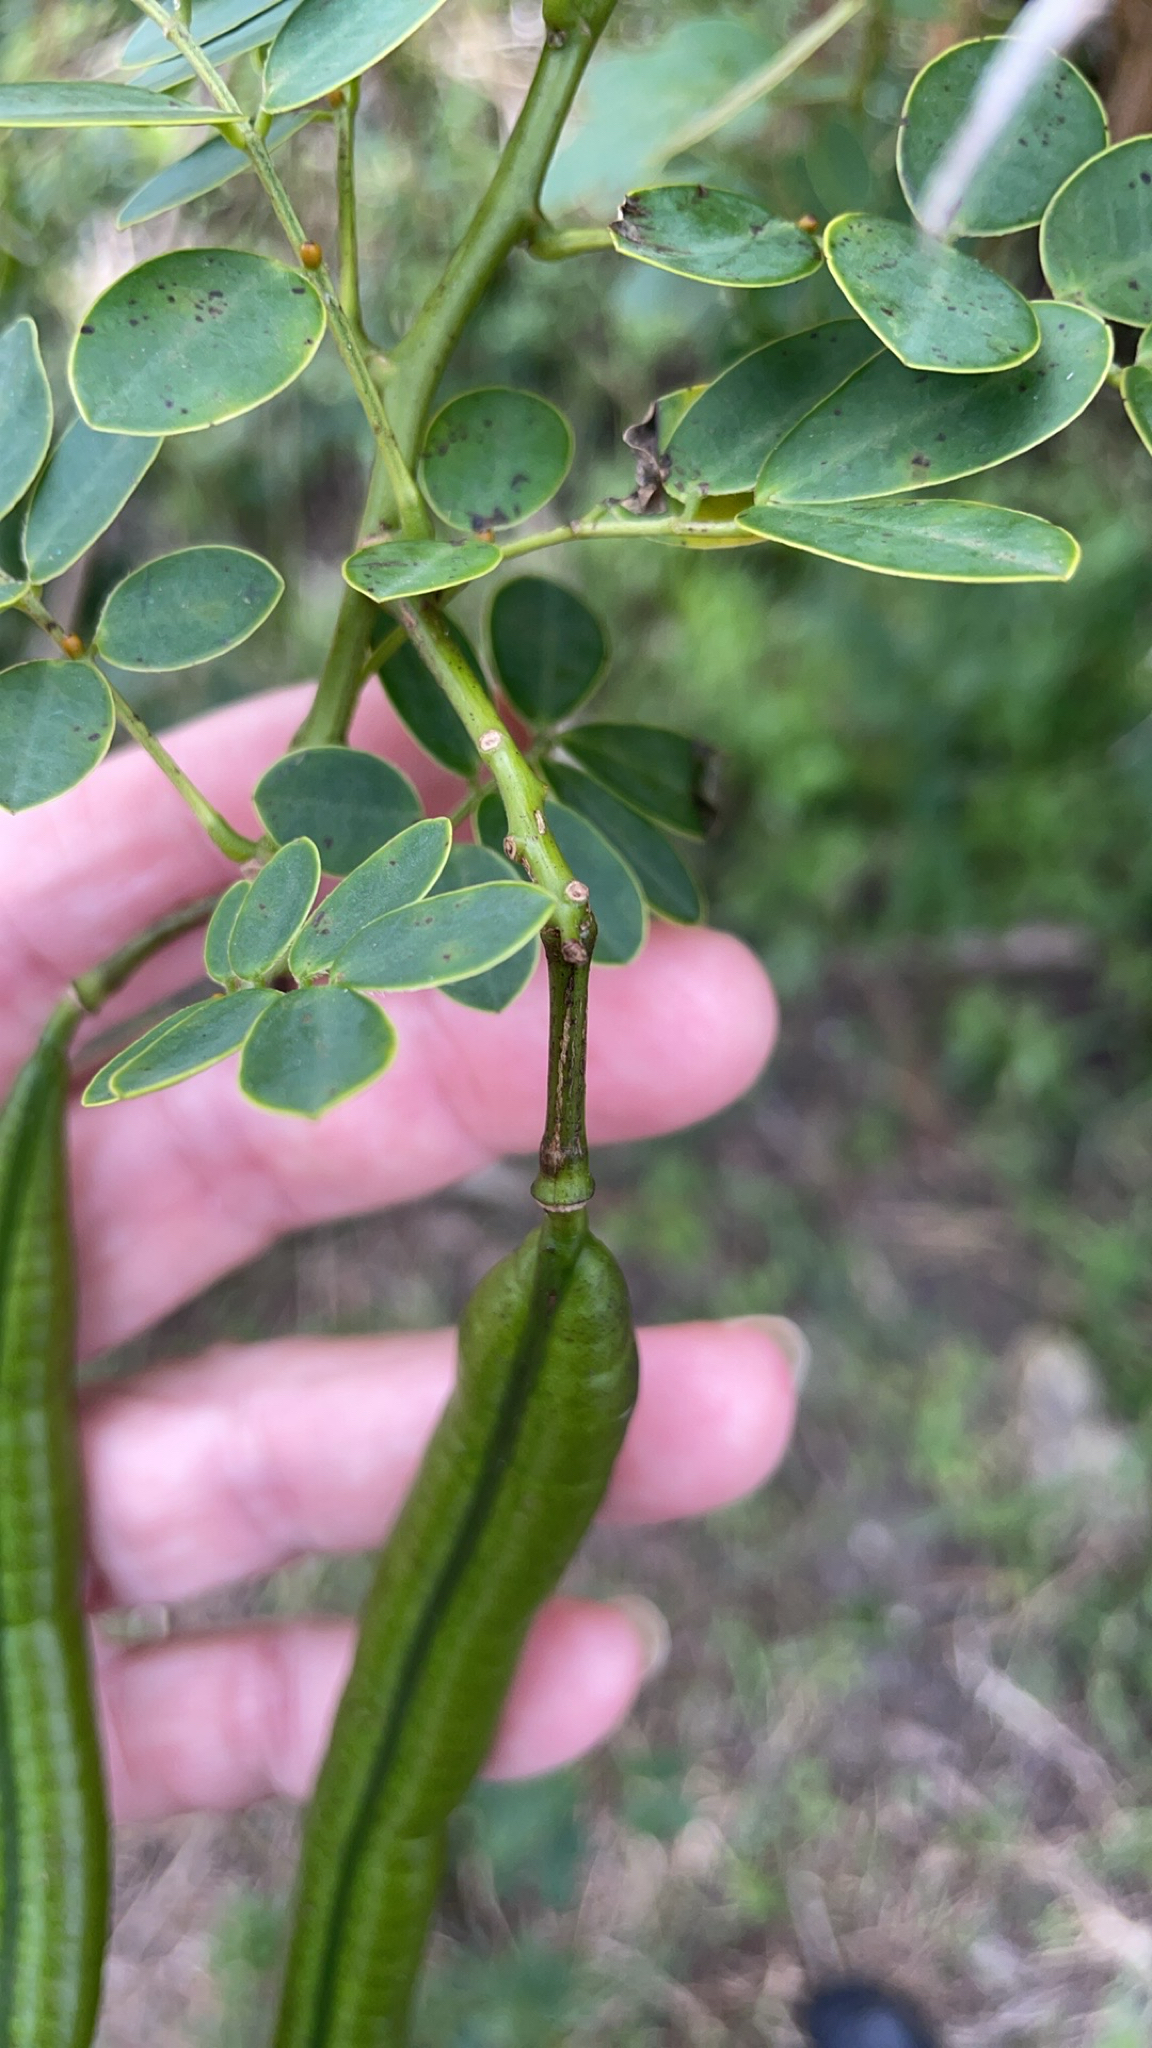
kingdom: Plantae
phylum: Tracheophyta
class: Magnoliopsida
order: Fabales
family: Fabaceae
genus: Senna
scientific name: Senna pendula
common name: Easter cassia
